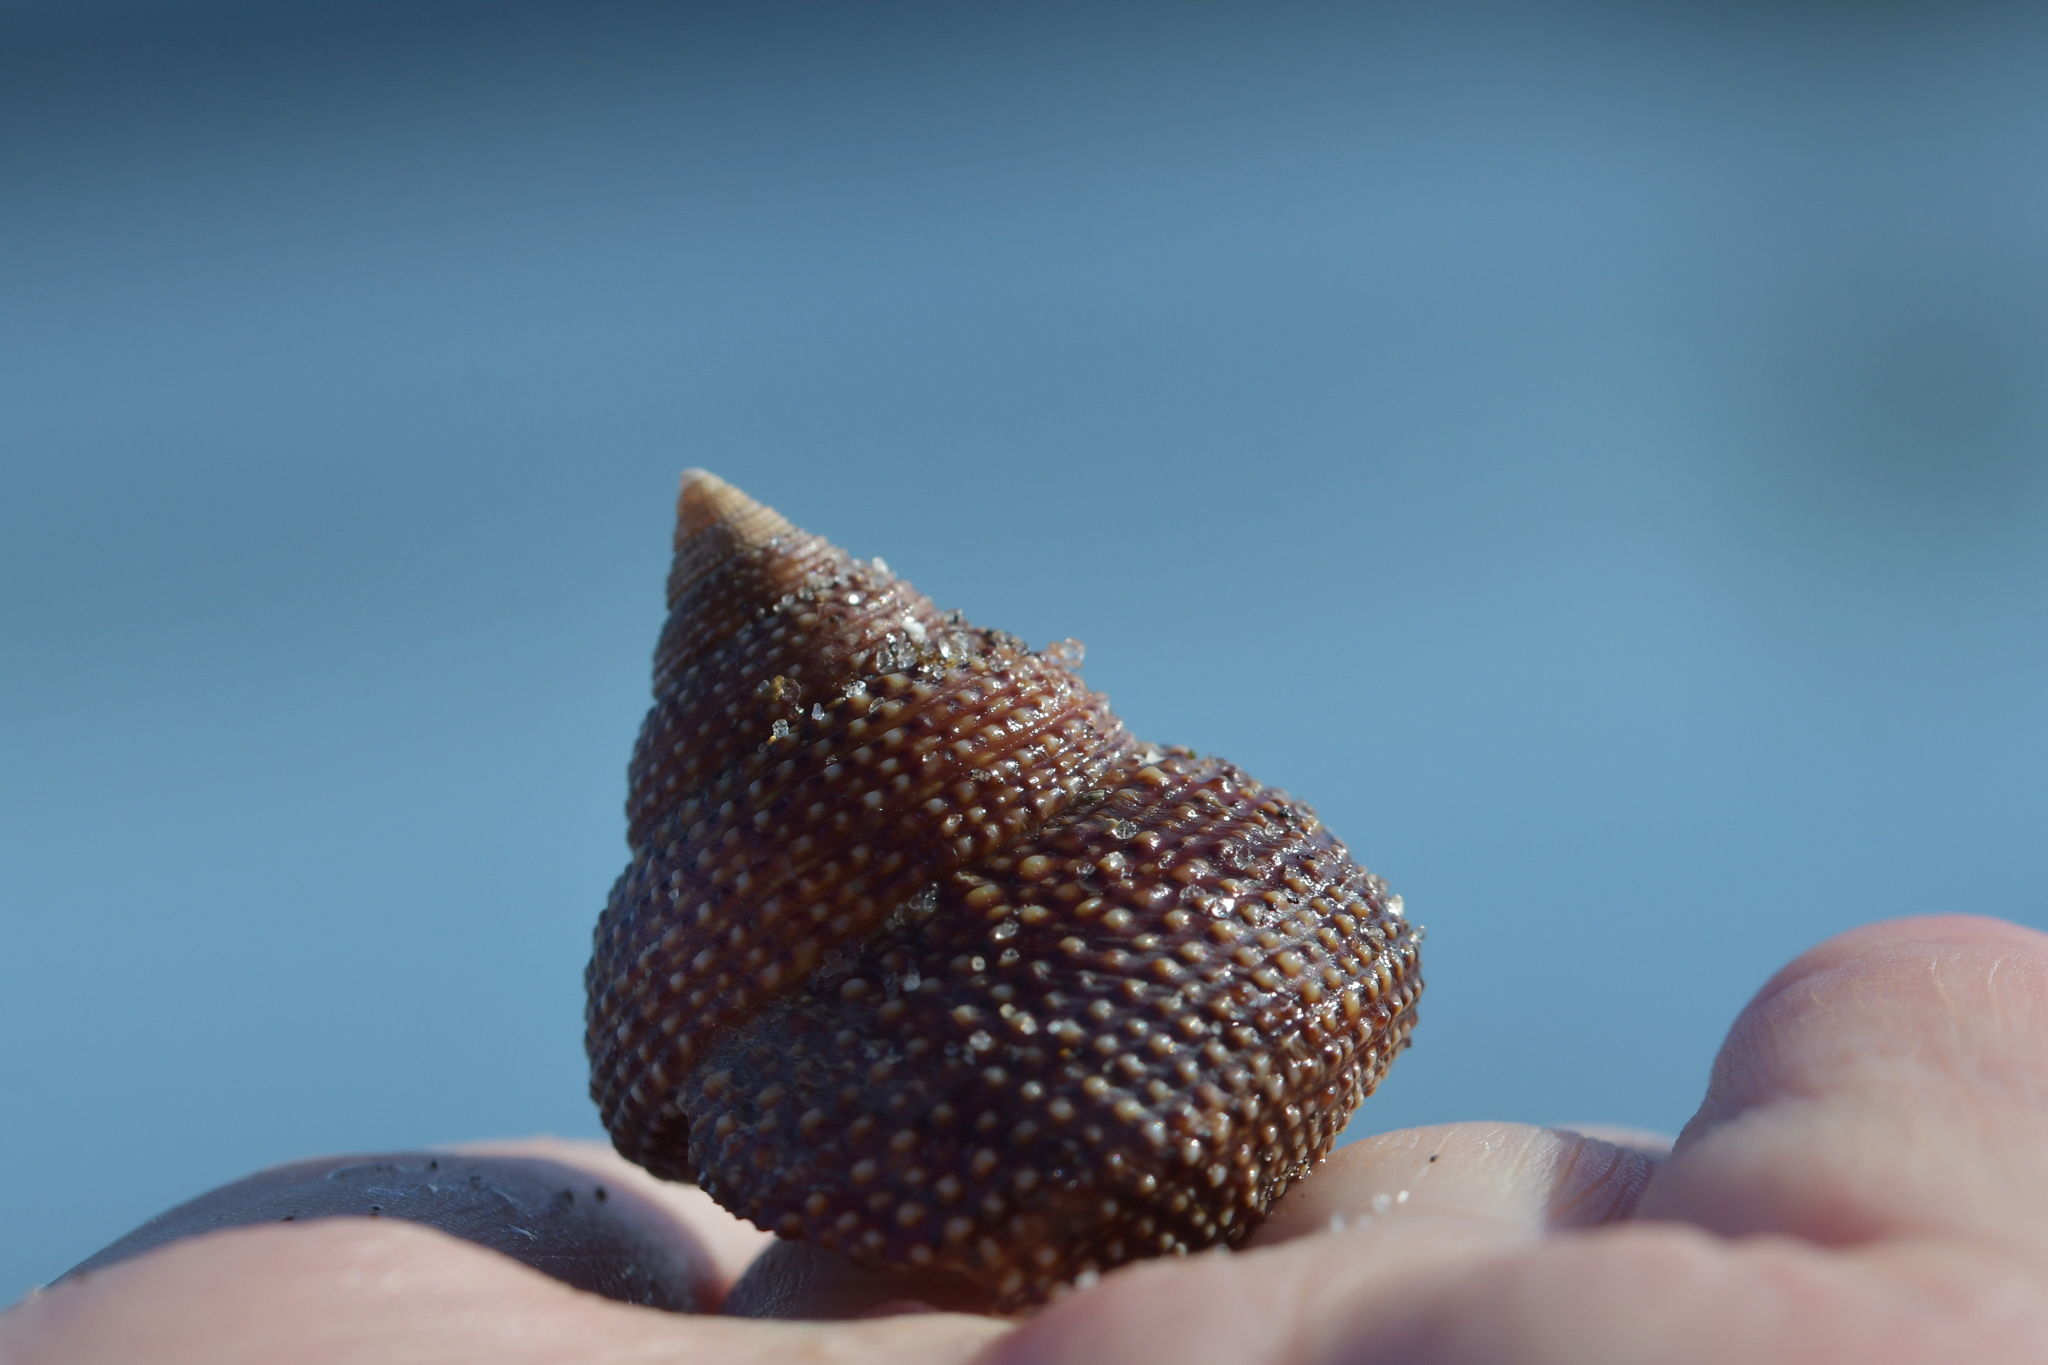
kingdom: Animalia
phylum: Mollusca
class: Gastropoda
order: Trochida
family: Calliostomatidae
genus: Maurea
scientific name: Maurea punctulata
